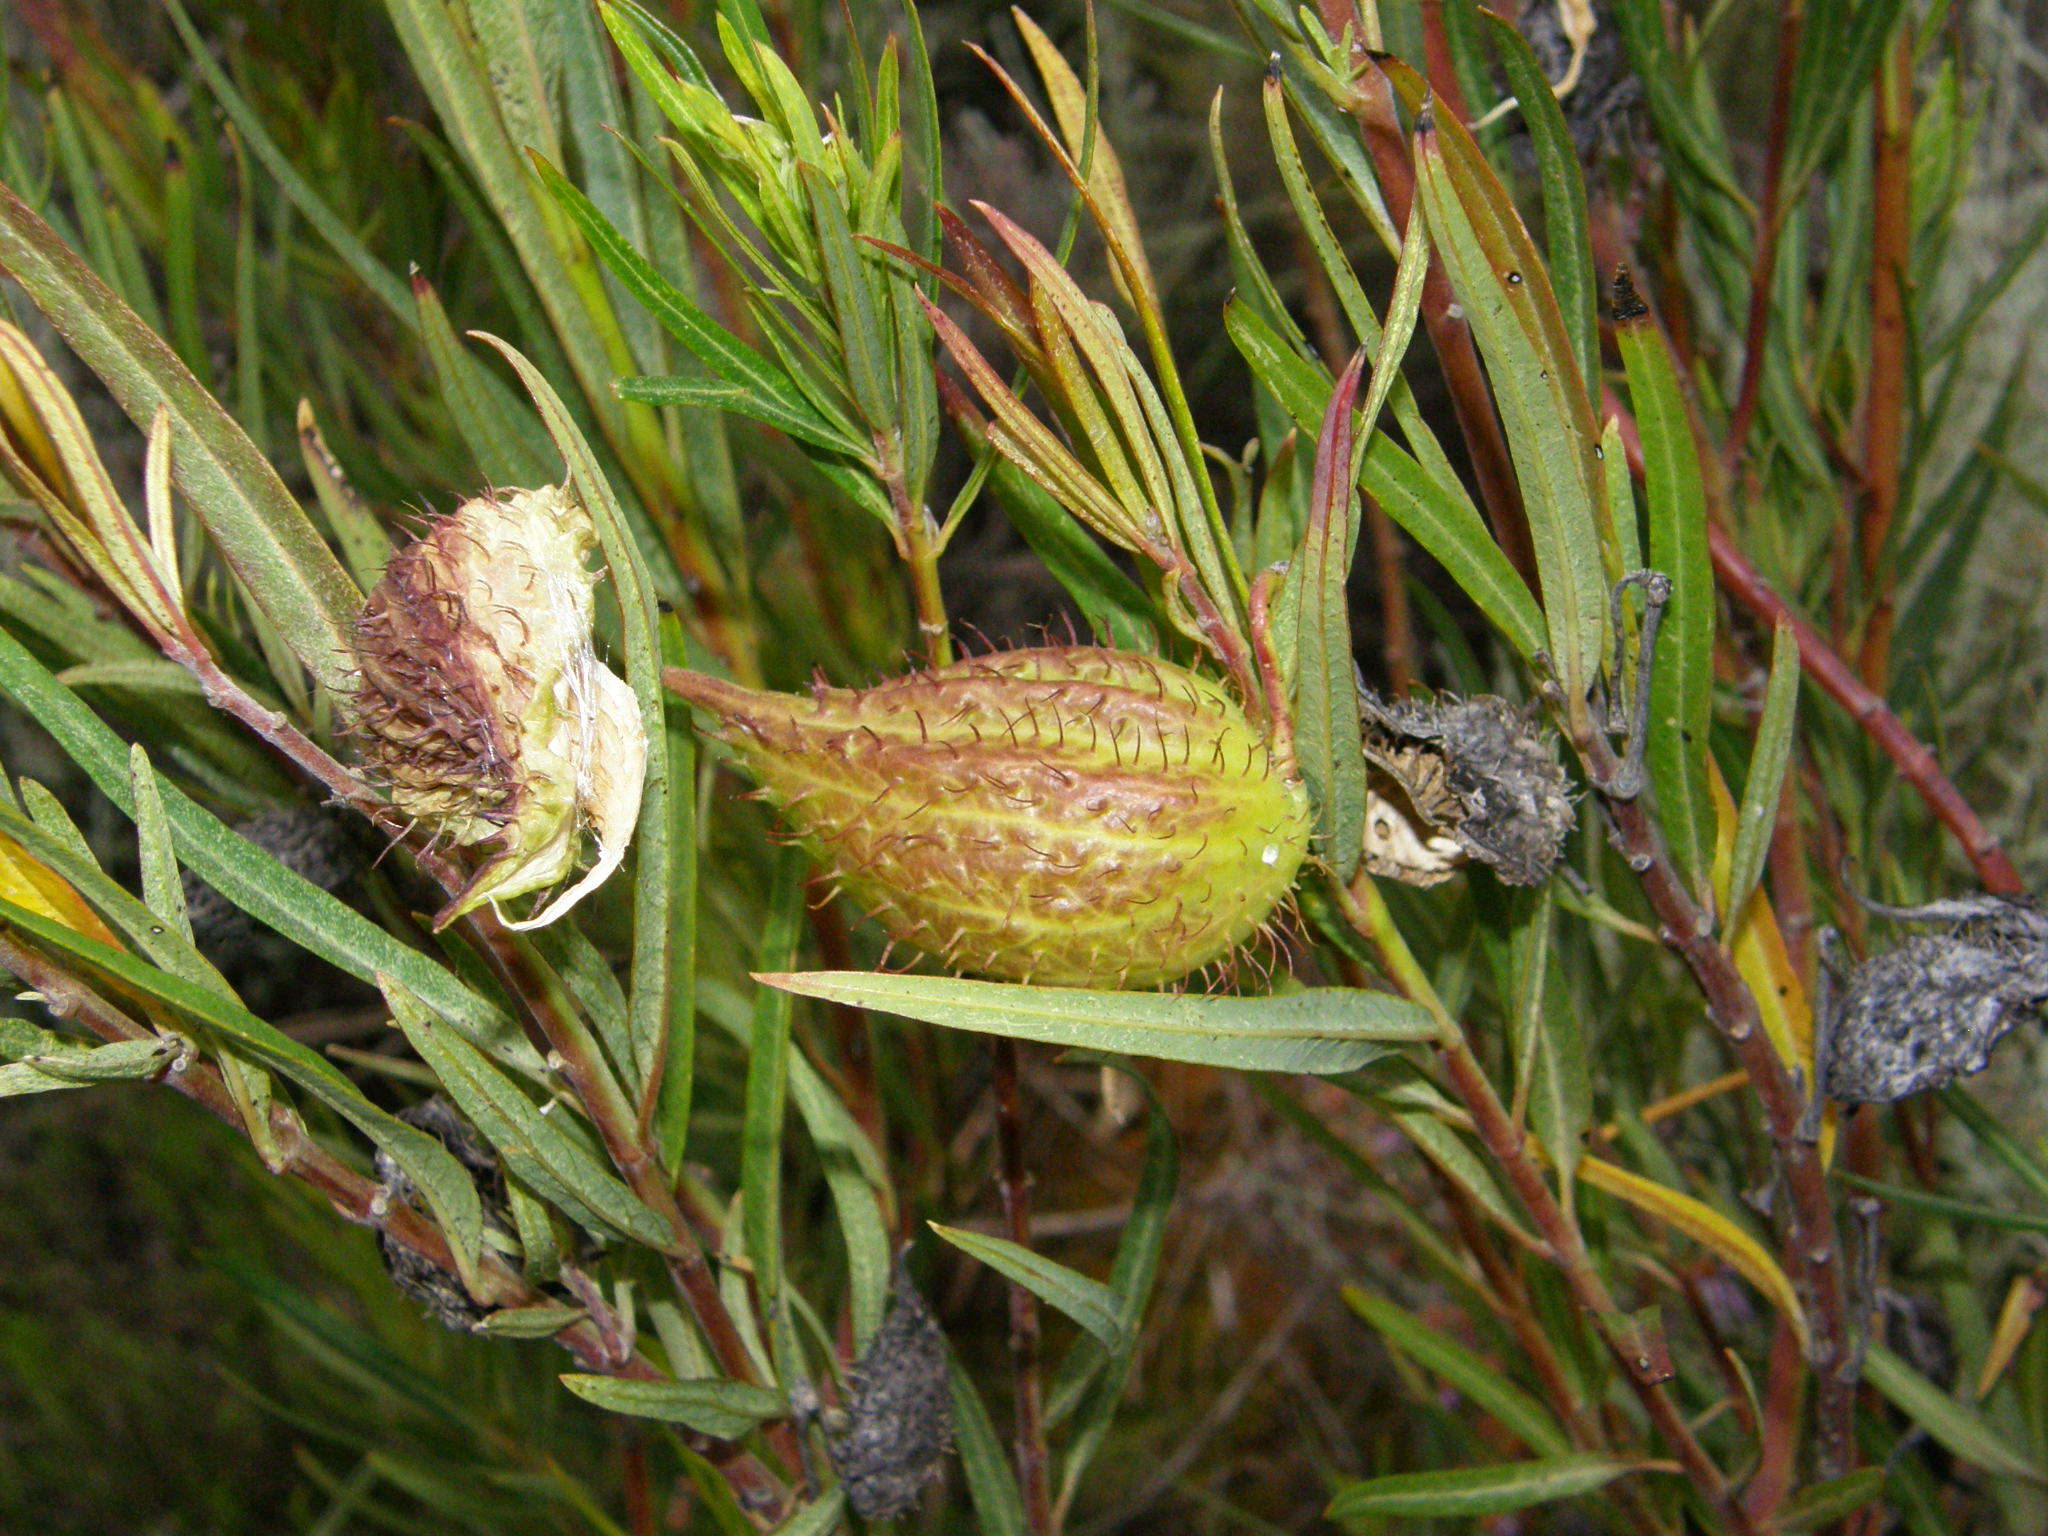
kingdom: Plantae
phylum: Tracheophyta
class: Magnoliopsida
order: Gentianales
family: Apocynaceae
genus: Gomphocarpus
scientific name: Gomphocarpus fruticosus
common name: Milkweed
